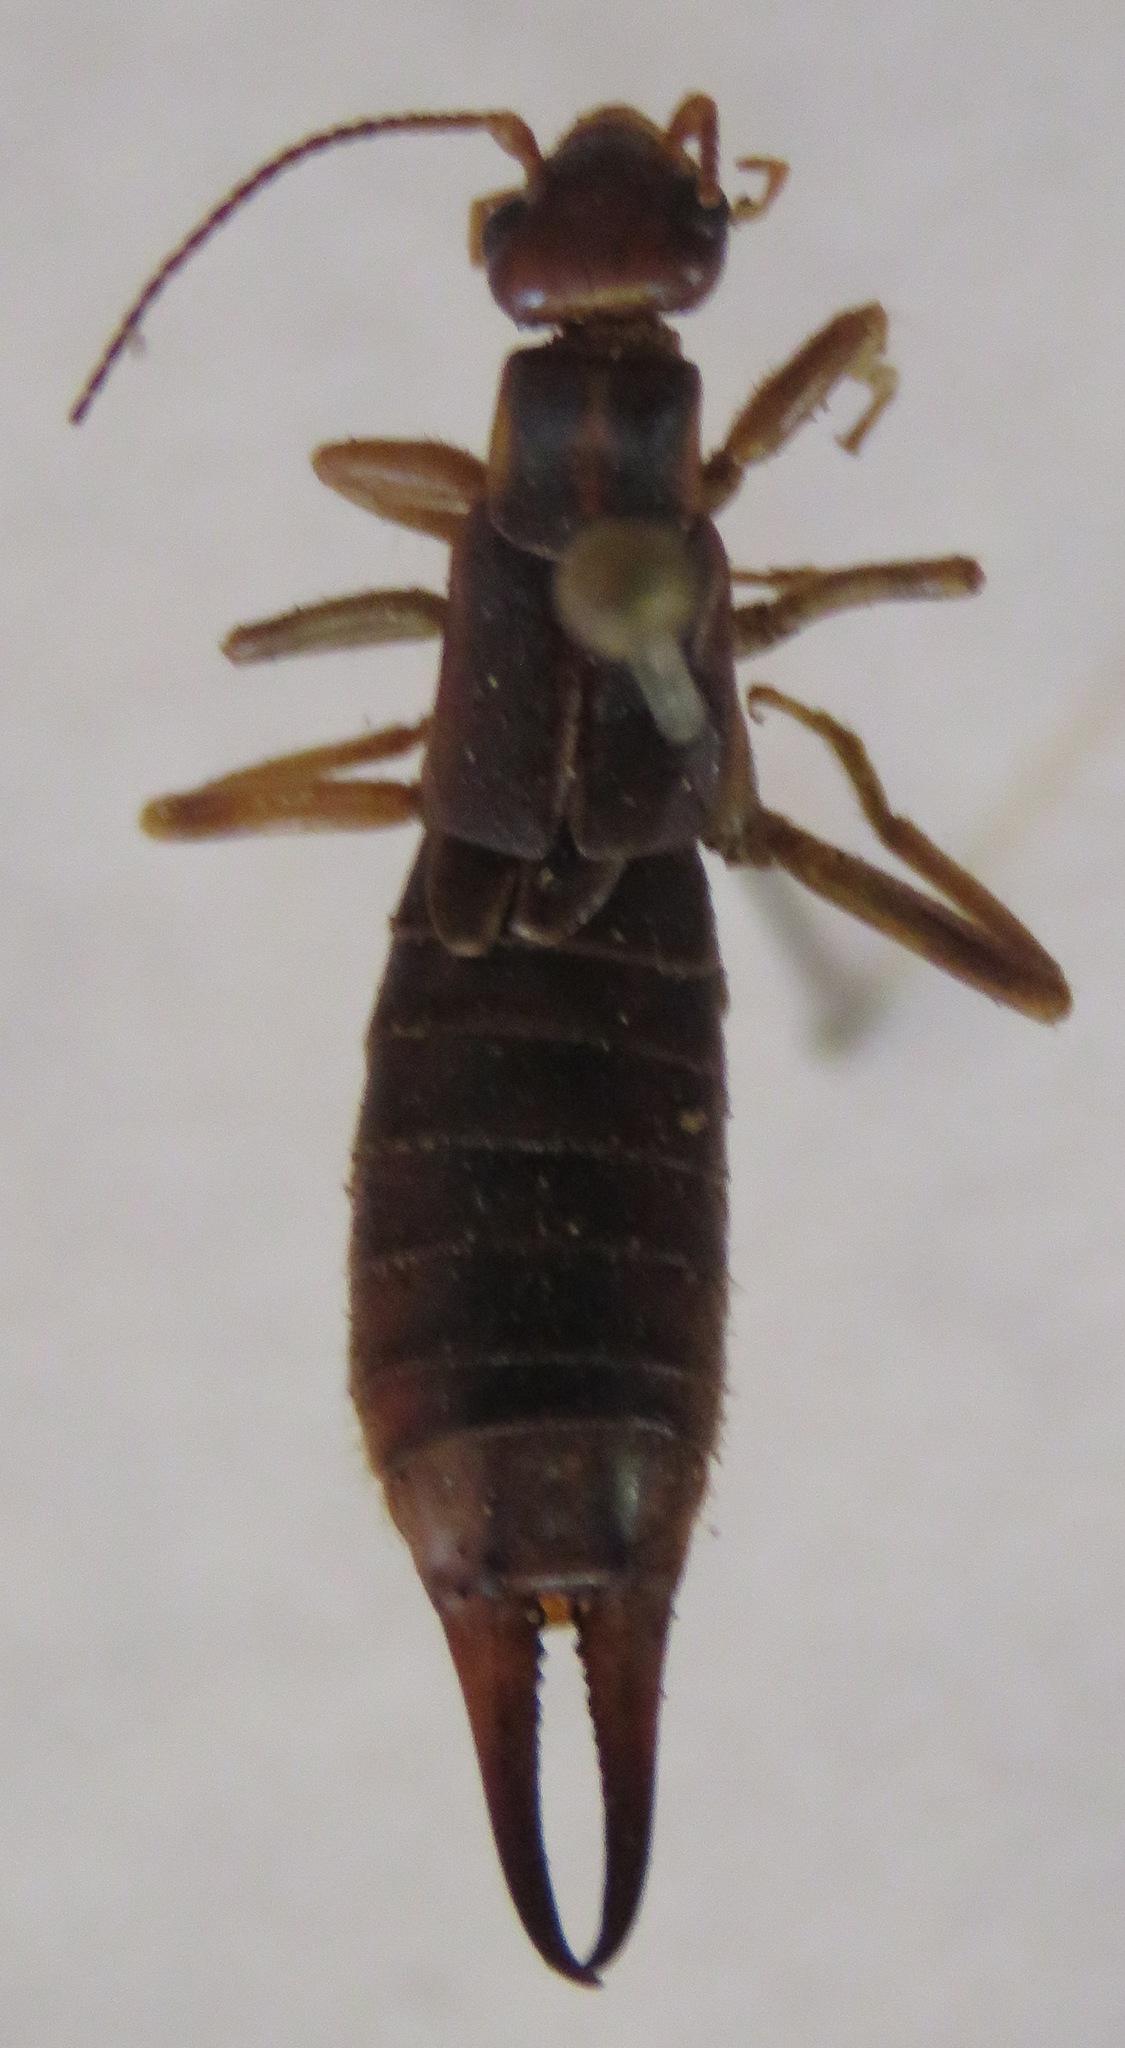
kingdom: Animalia
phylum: Arthropoda
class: Insecta
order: Dermaptera
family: Labiduridae
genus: Labidura
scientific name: Labidura riparia
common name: Striped earwig
